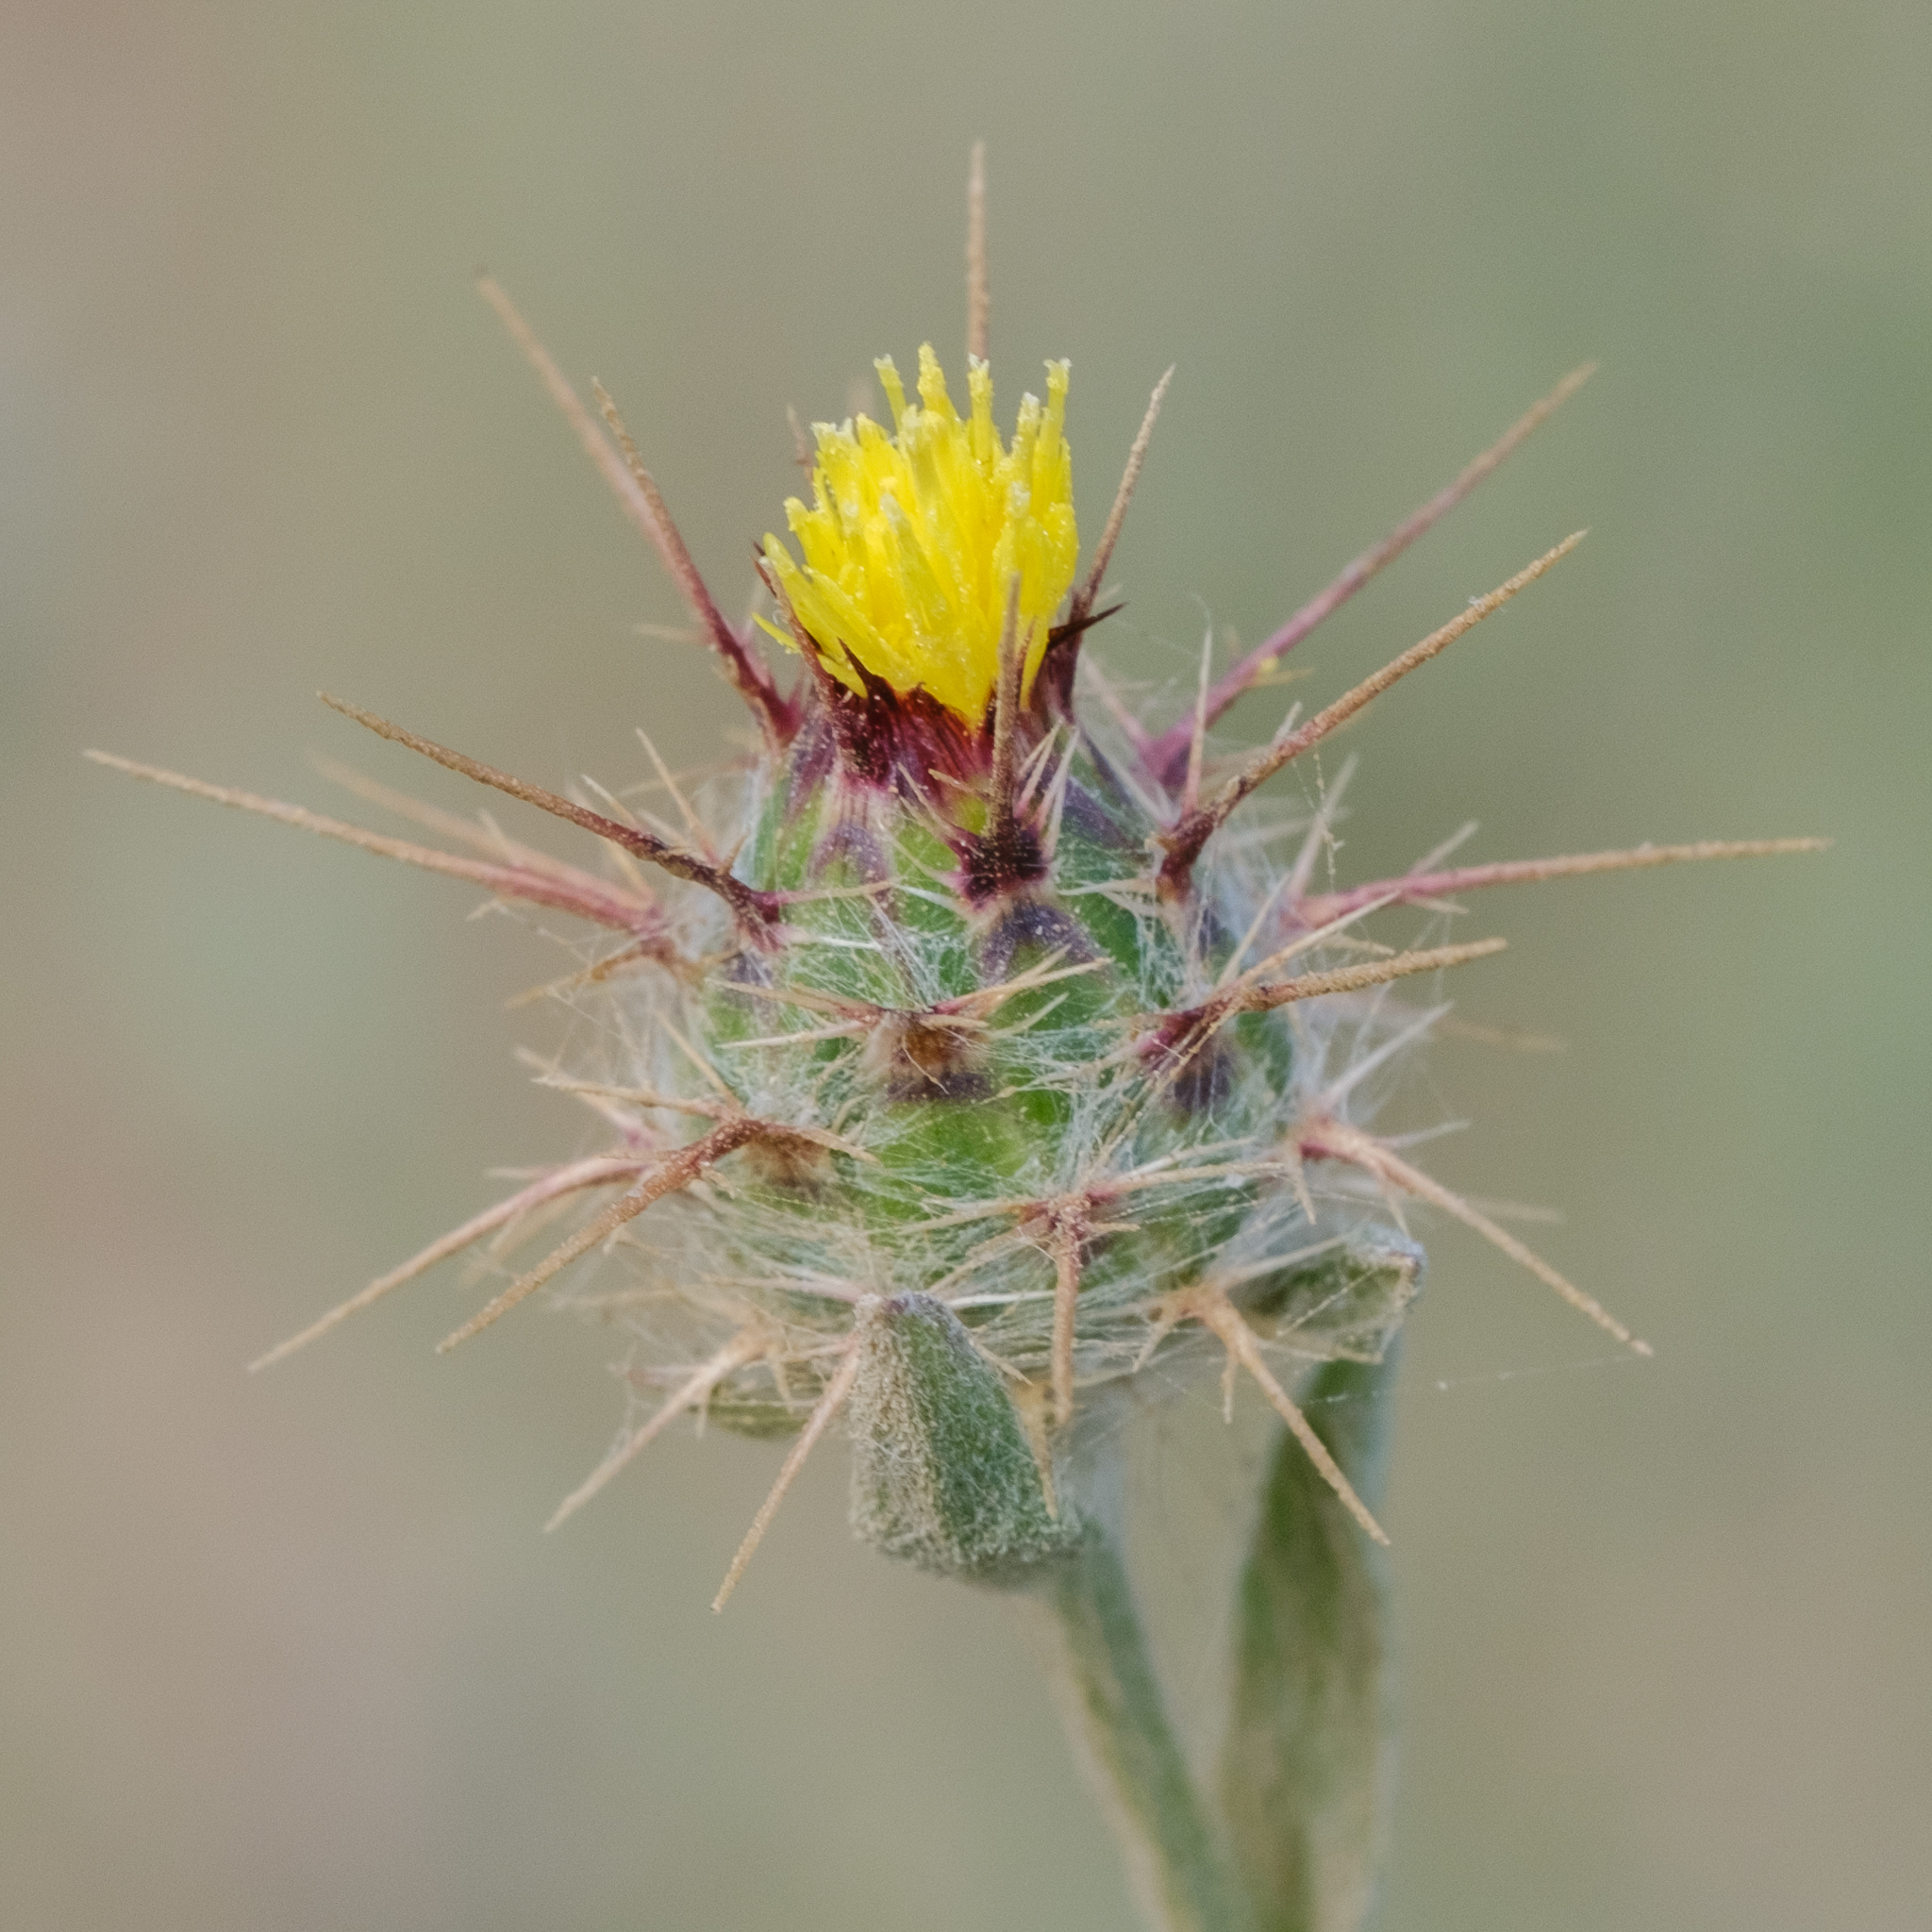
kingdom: Plantae
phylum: Tracheophyta
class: Magnoliopsida
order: Asterales
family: Asteraceae
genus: Centaurea
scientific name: Centaurea melitensis
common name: Maltese star-thistle
